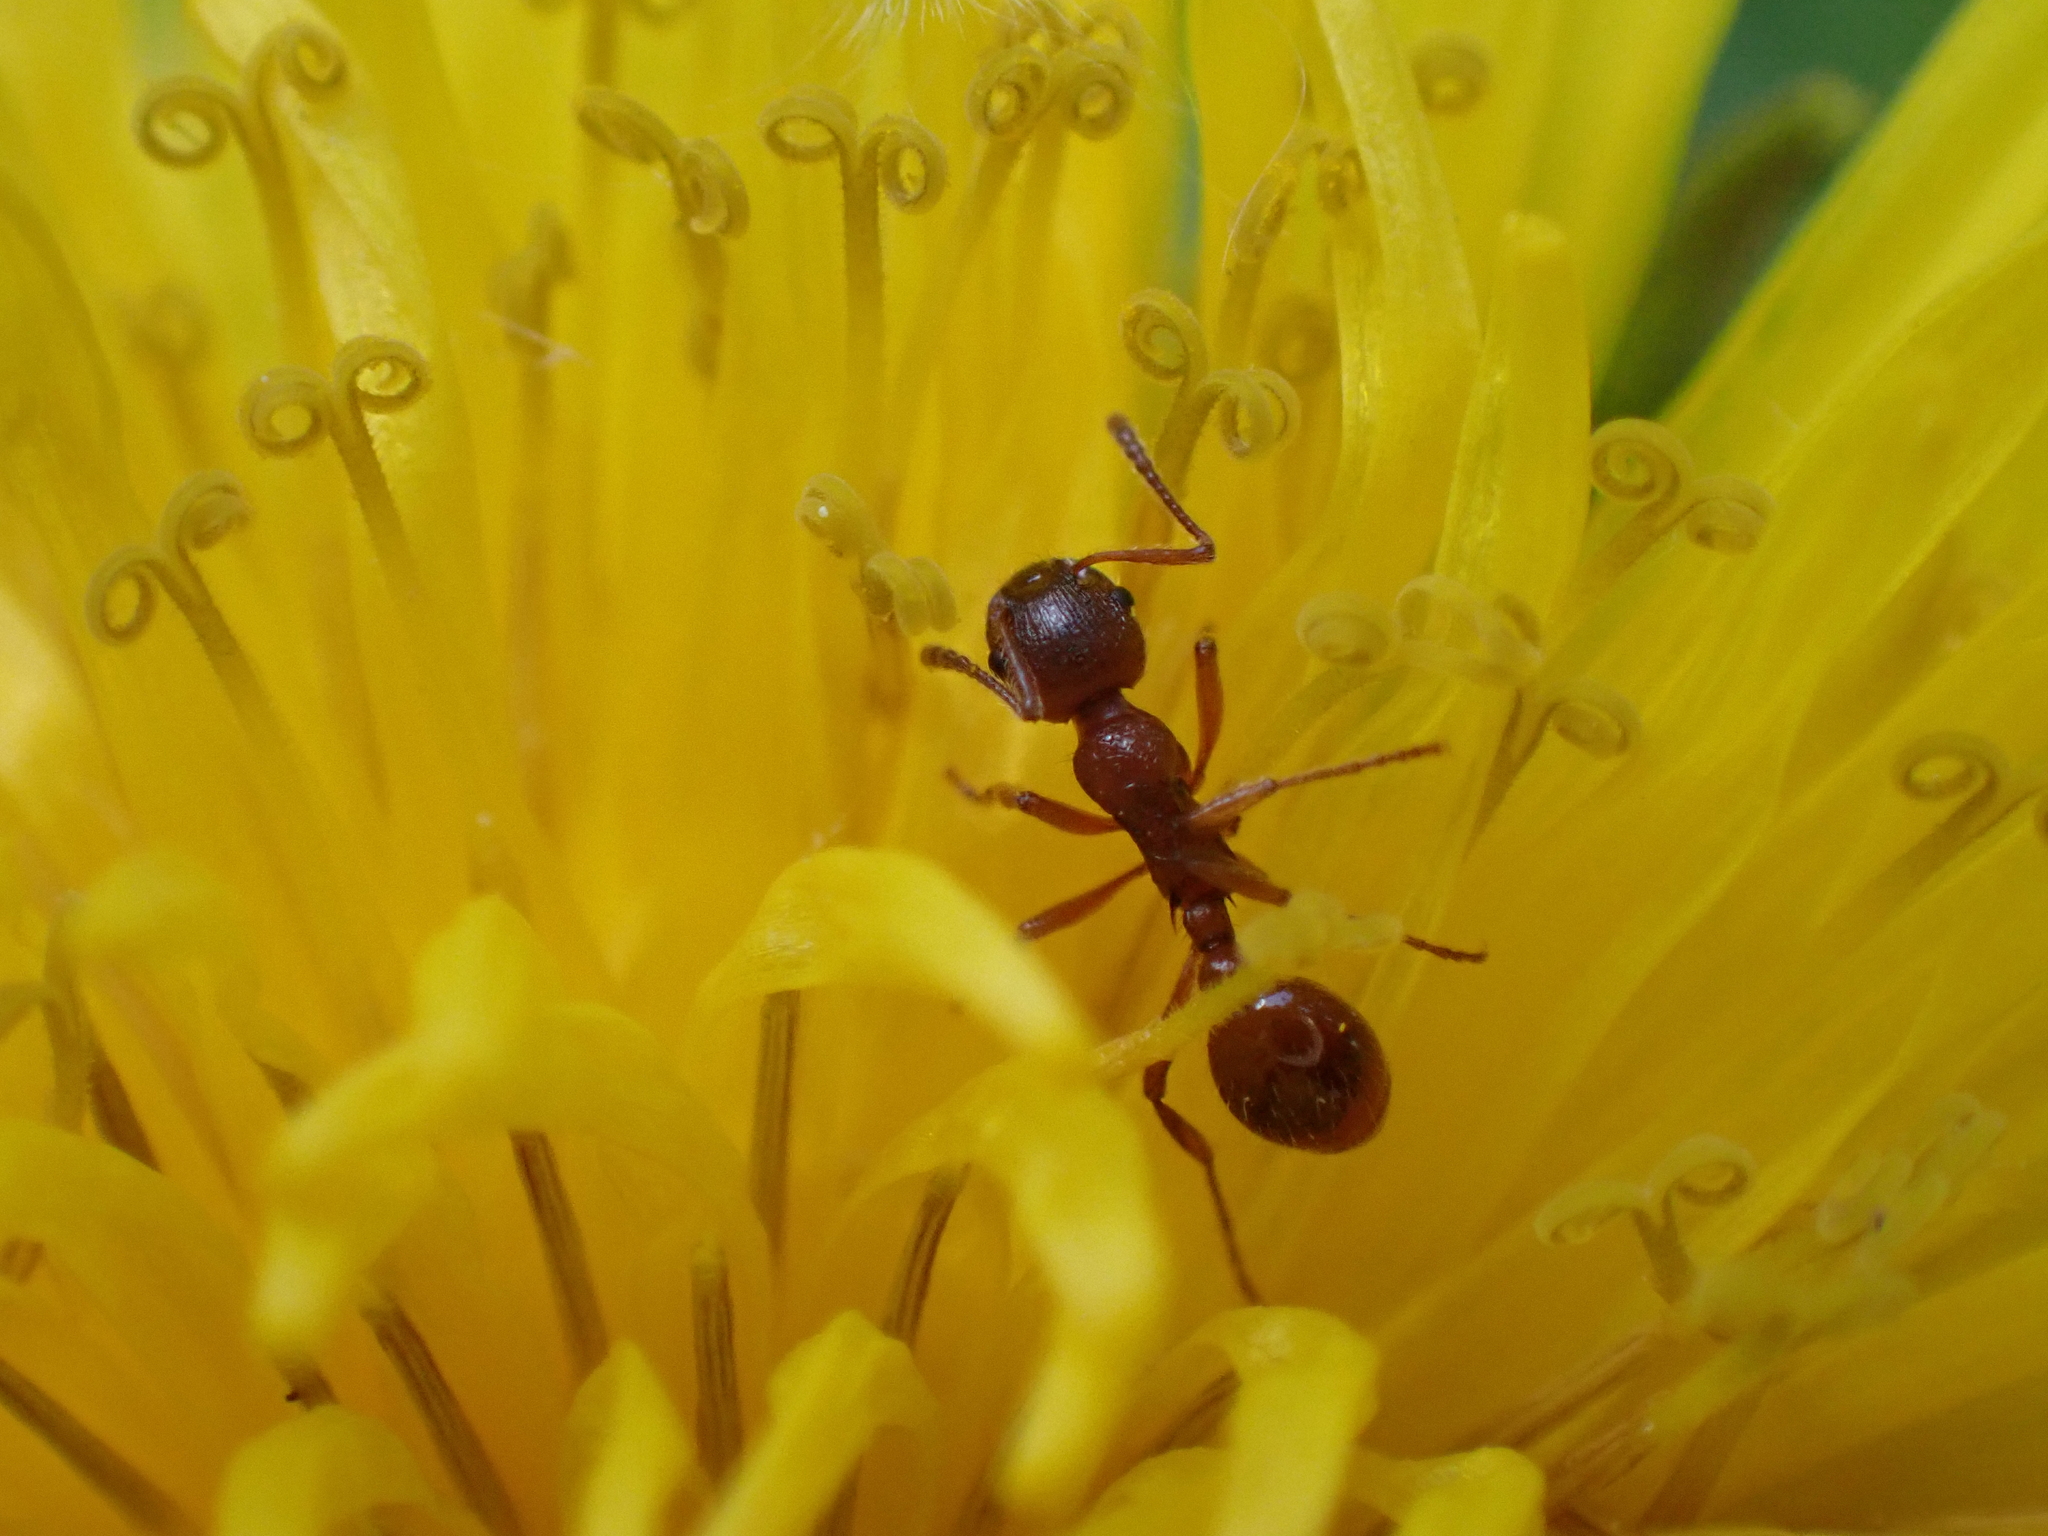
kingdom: Animalia
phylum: Arthropoda
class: Insecta
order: Hymenoptera
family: Formicidae
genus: Myrmica
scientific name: Myrmica
